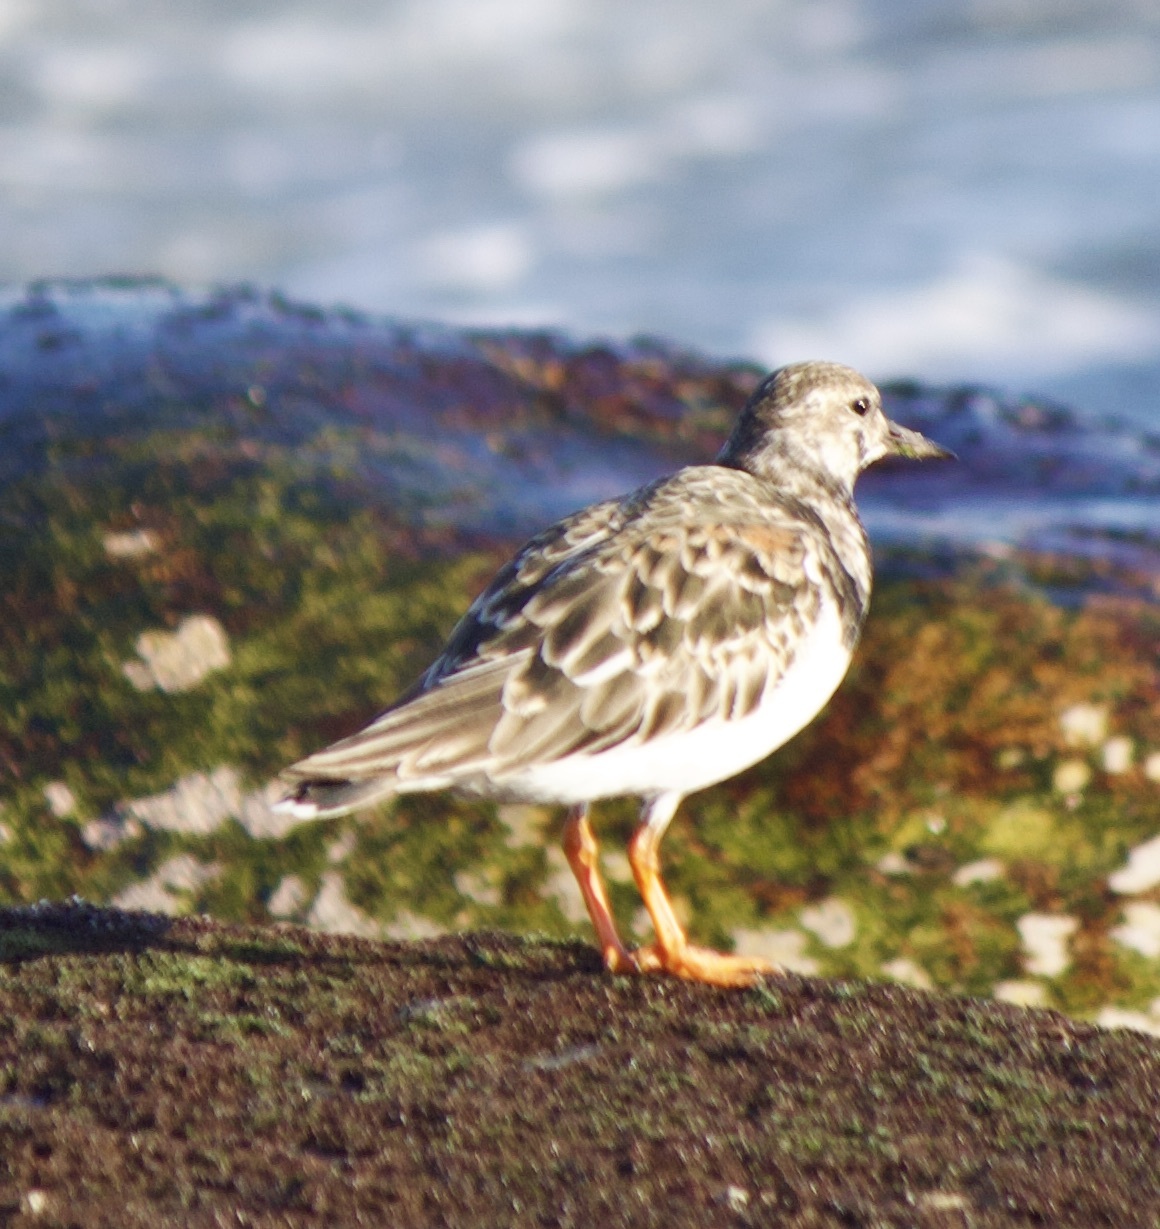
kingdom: Animalia
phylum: Chordata
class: Aves
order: Charadriiformes
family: Scolopacidae
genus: Arenaria
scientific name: Arenaria interpres
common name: Ruddy turnstone
